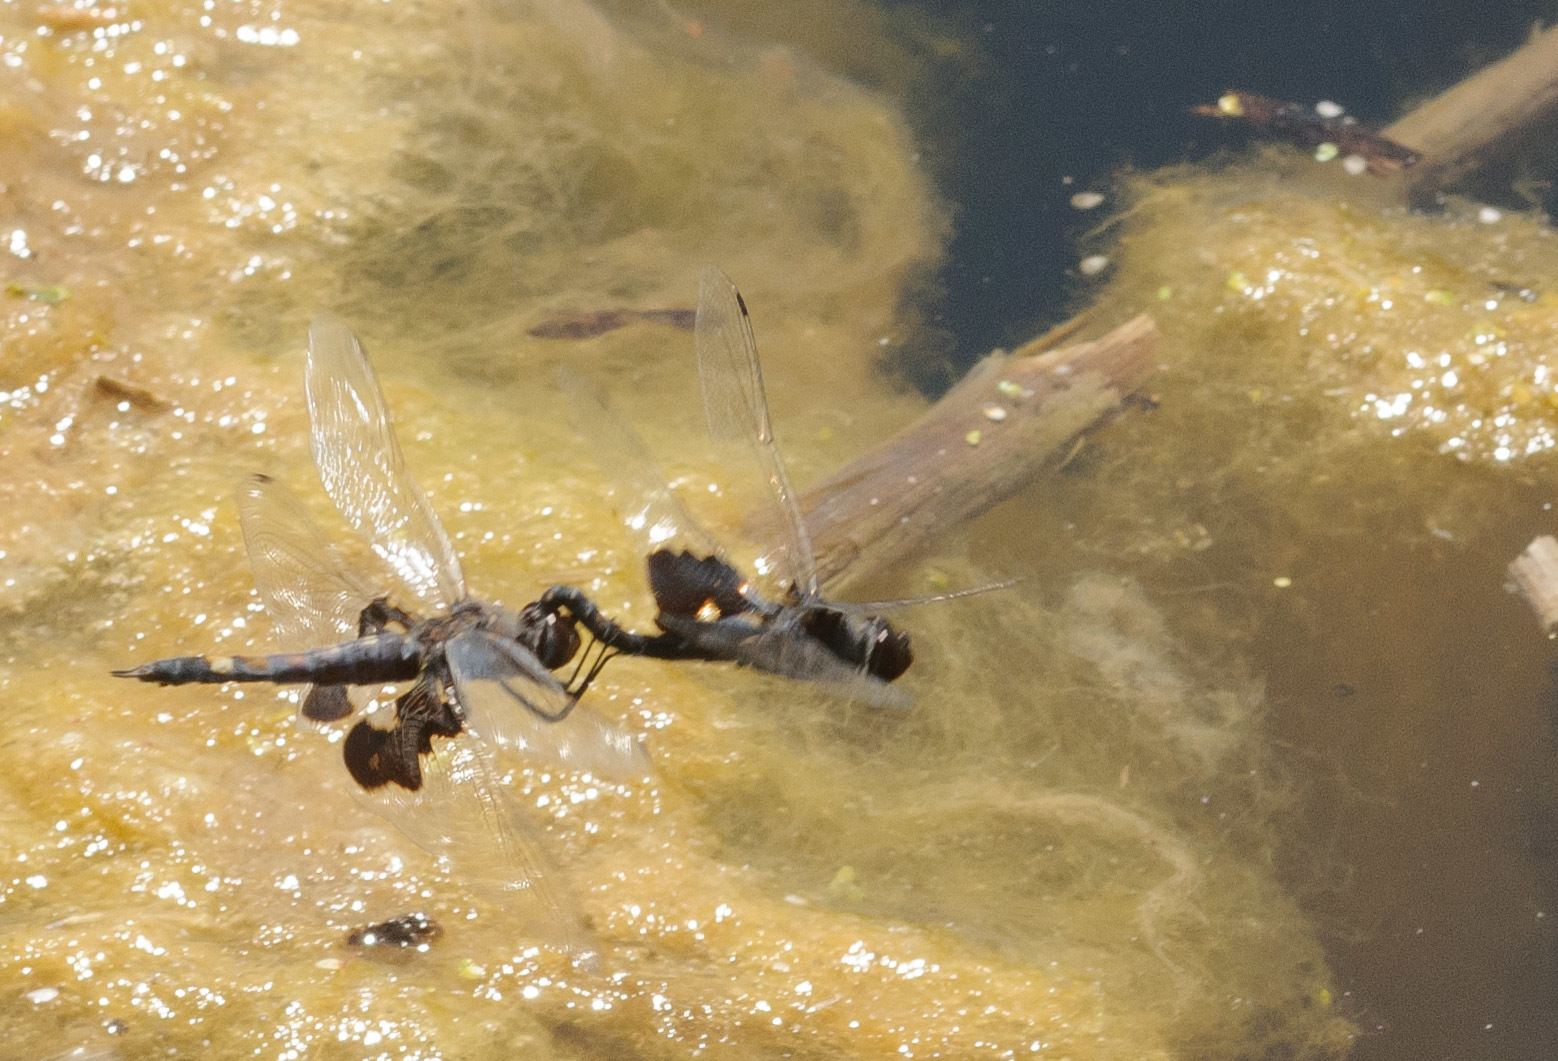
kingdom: Animalia
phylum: Arthropoda
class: Insecta
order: Odonata
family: Libellulidae
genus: Tramea
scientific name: Tramea lacerata
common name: Black saddlebags
